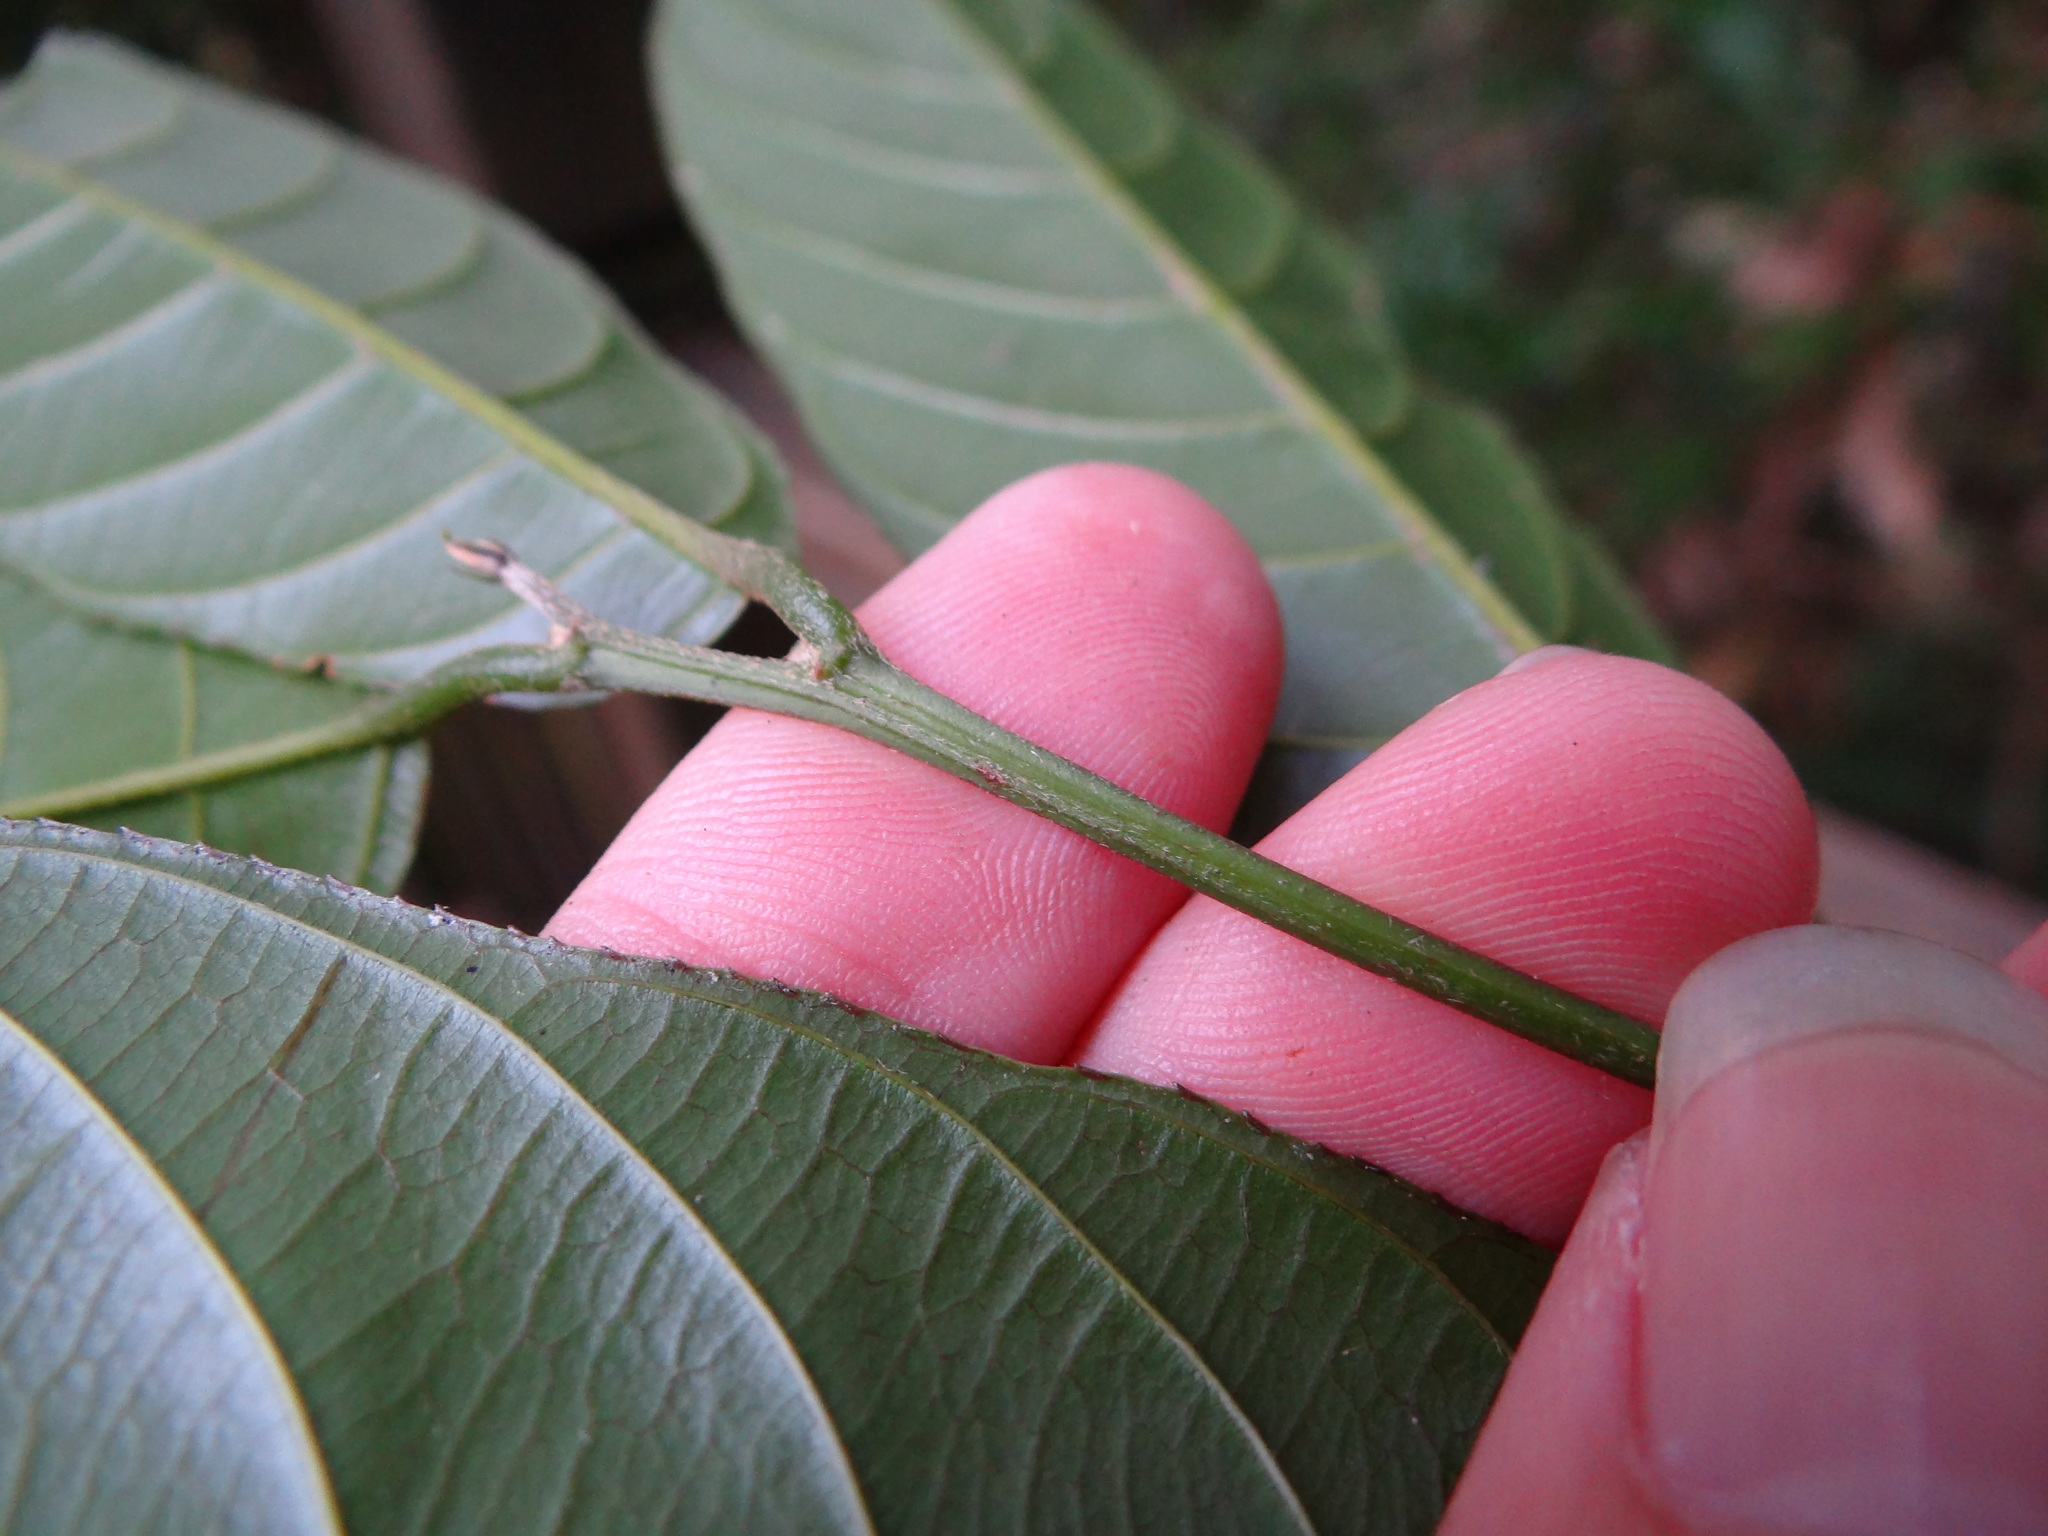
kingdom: Plantae
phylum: Tracheophyta
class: Magnoliopsida
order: Rosales
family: Rhamnaceae
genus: Sageretia
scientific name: Sageretia randaiensis
